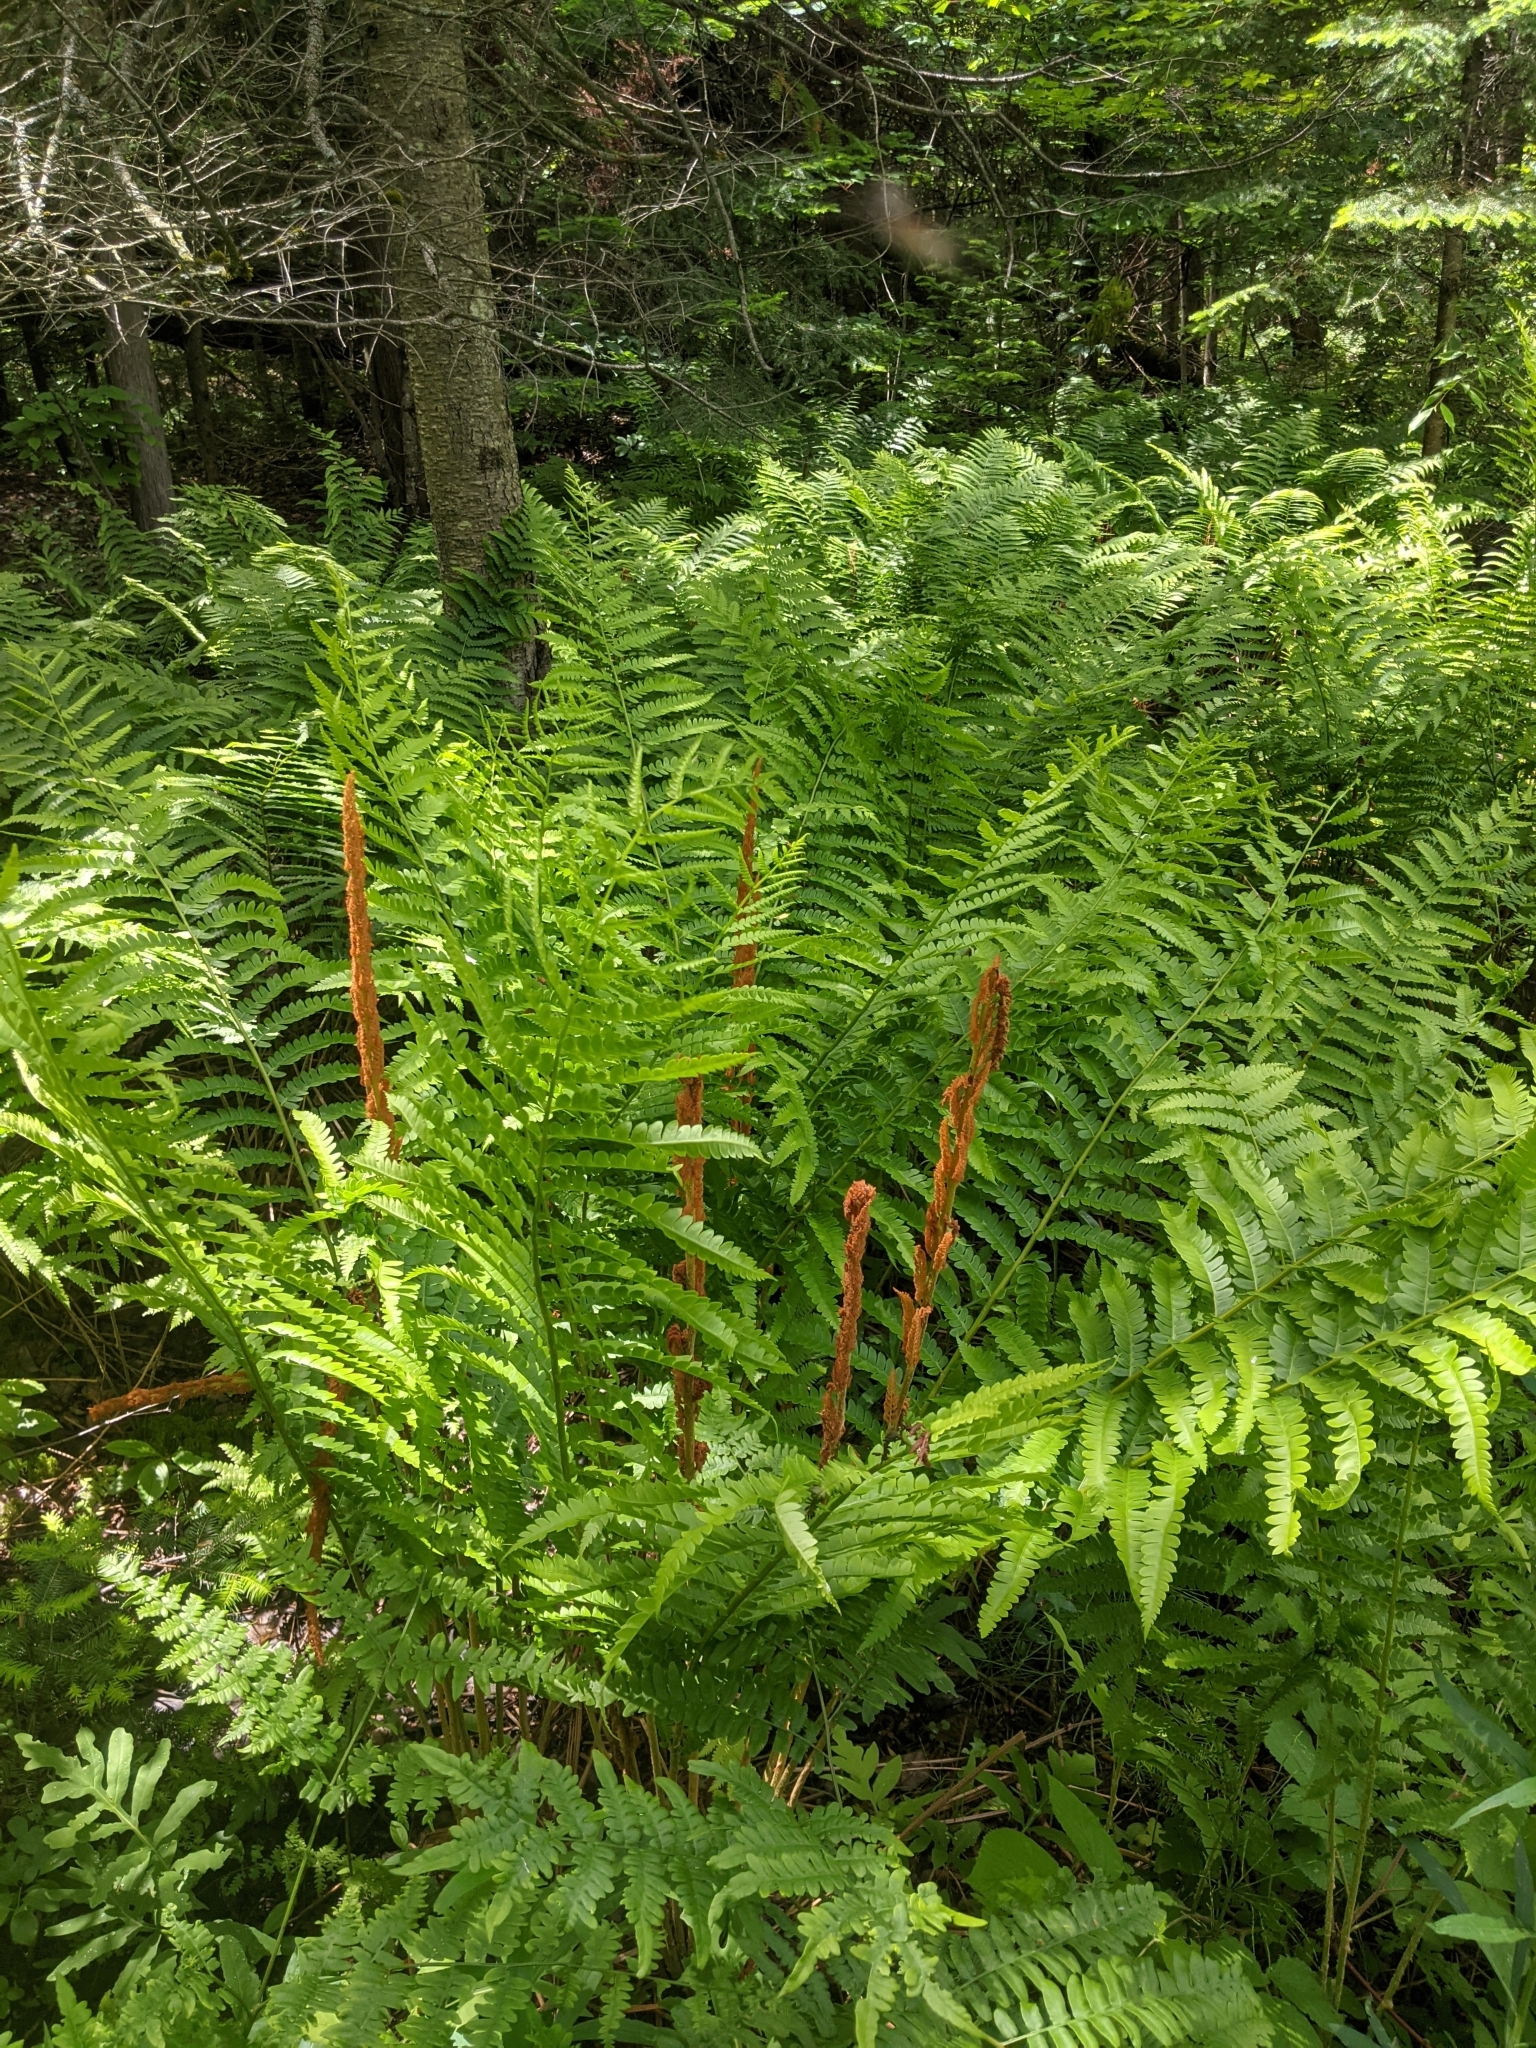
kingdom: Plantae
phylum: Tracheophyta
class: Polypodiopsida
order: Osmundales
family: Osmundaceae
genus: Osmundastrum
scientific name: Osmundastrum cinnamomeum
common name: Cinnamon fern
